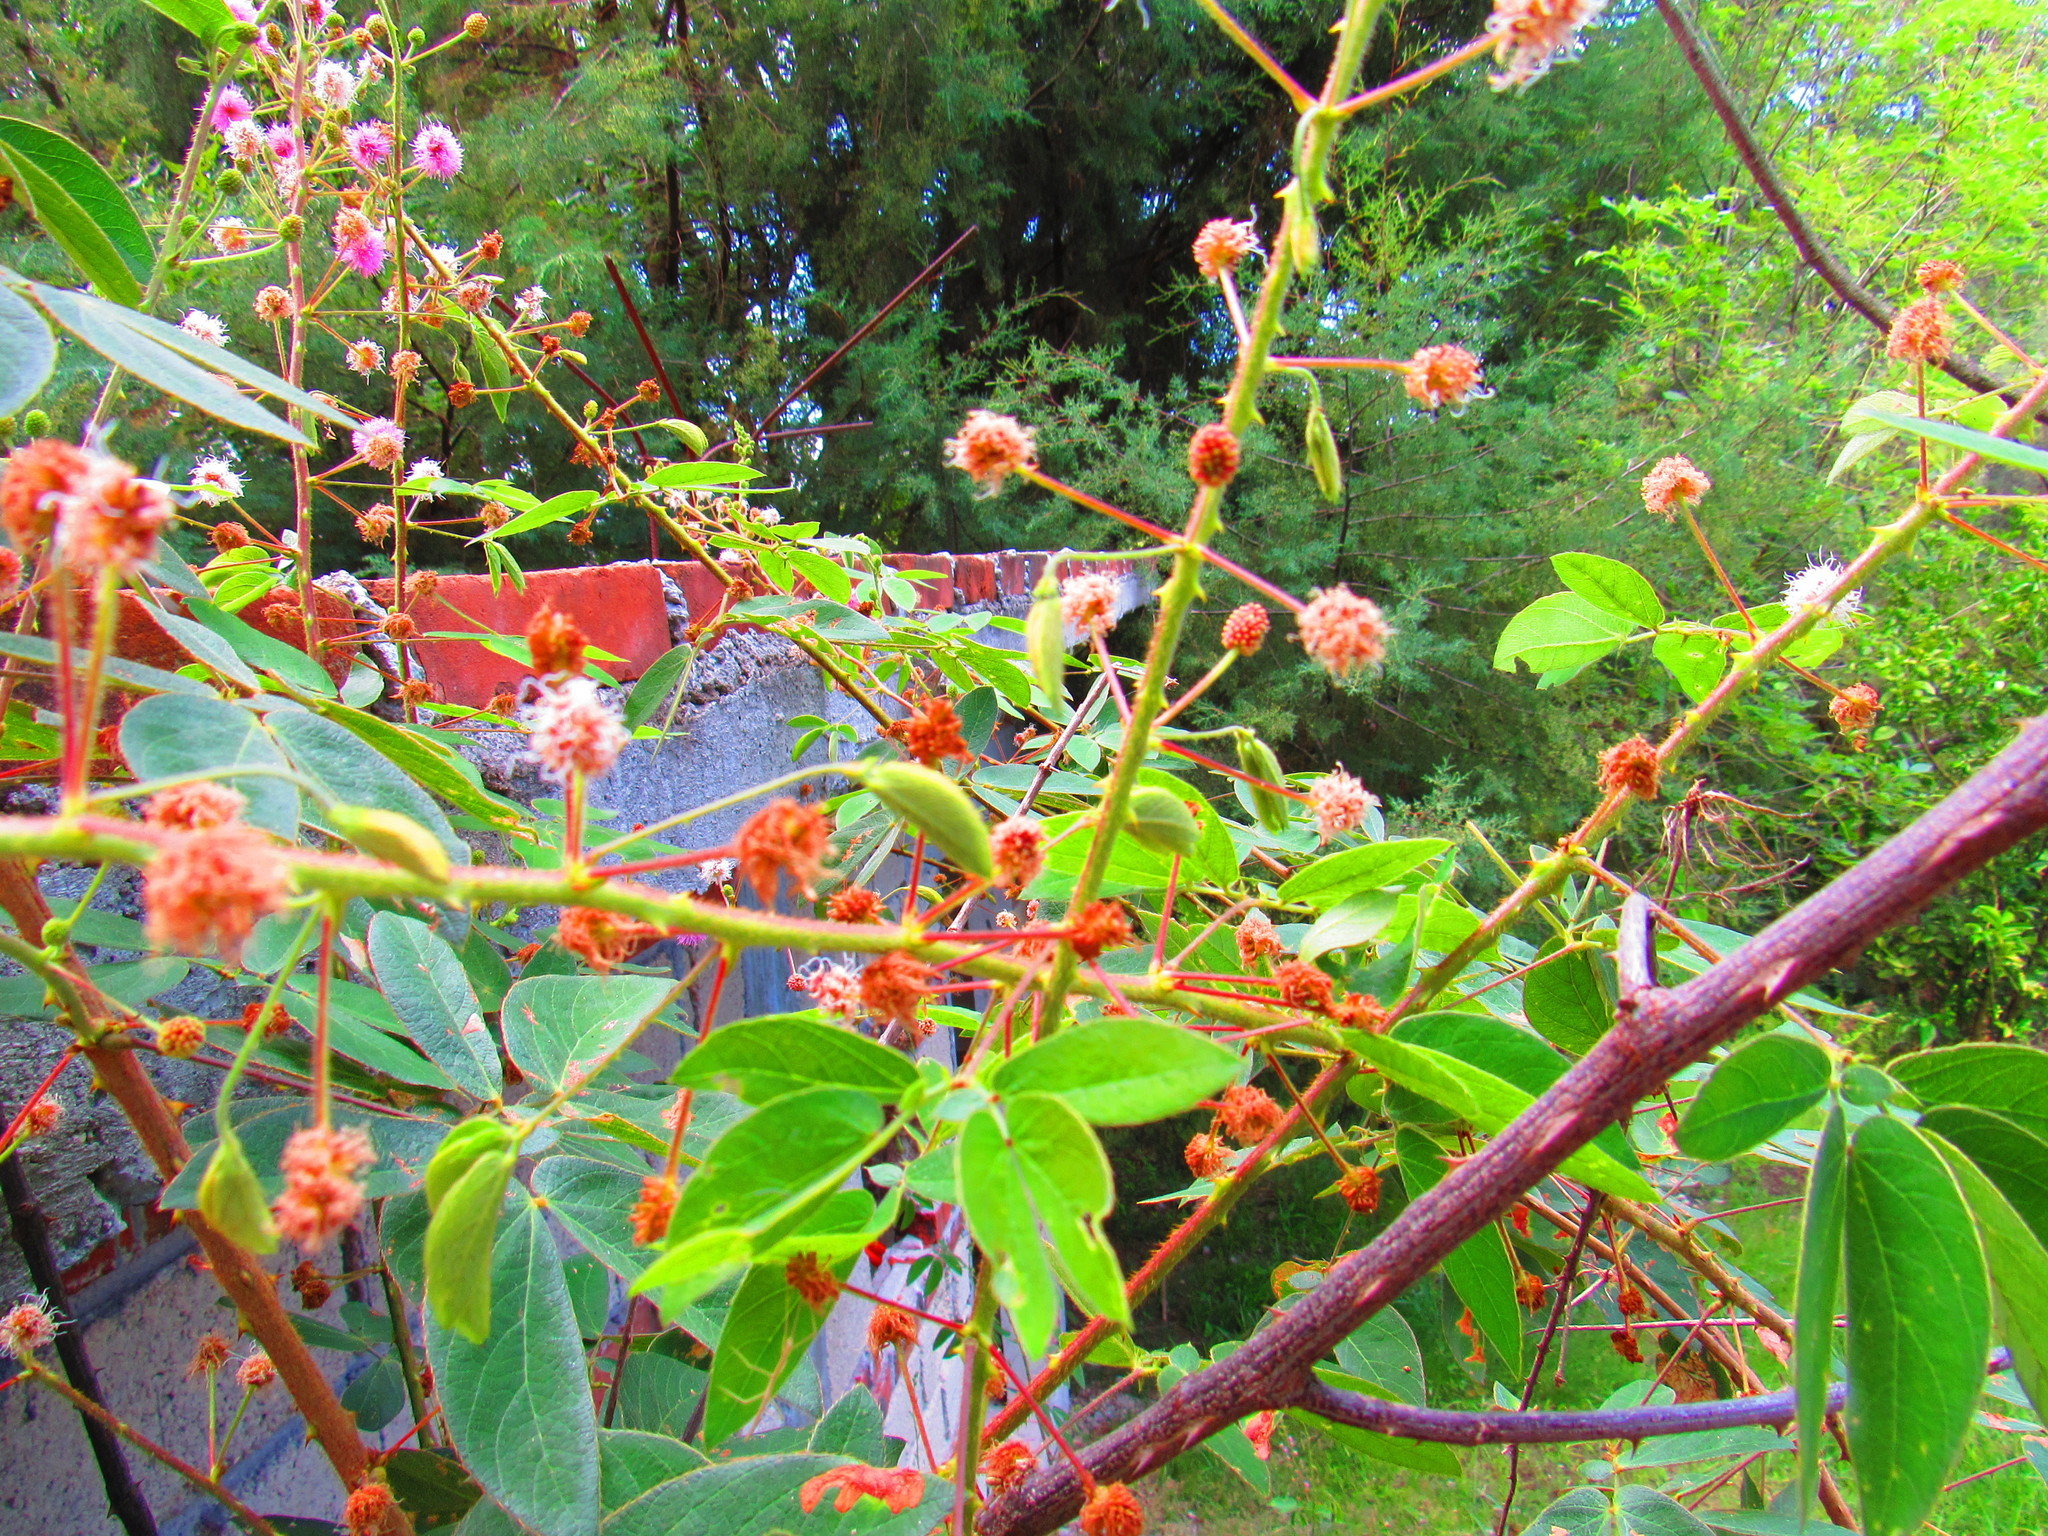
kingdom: Plantae
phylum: Tracheophyta
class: Magnoliopsida
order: Fabales
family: Fabaceae
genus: Mimosa
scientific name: Mimosa albida
